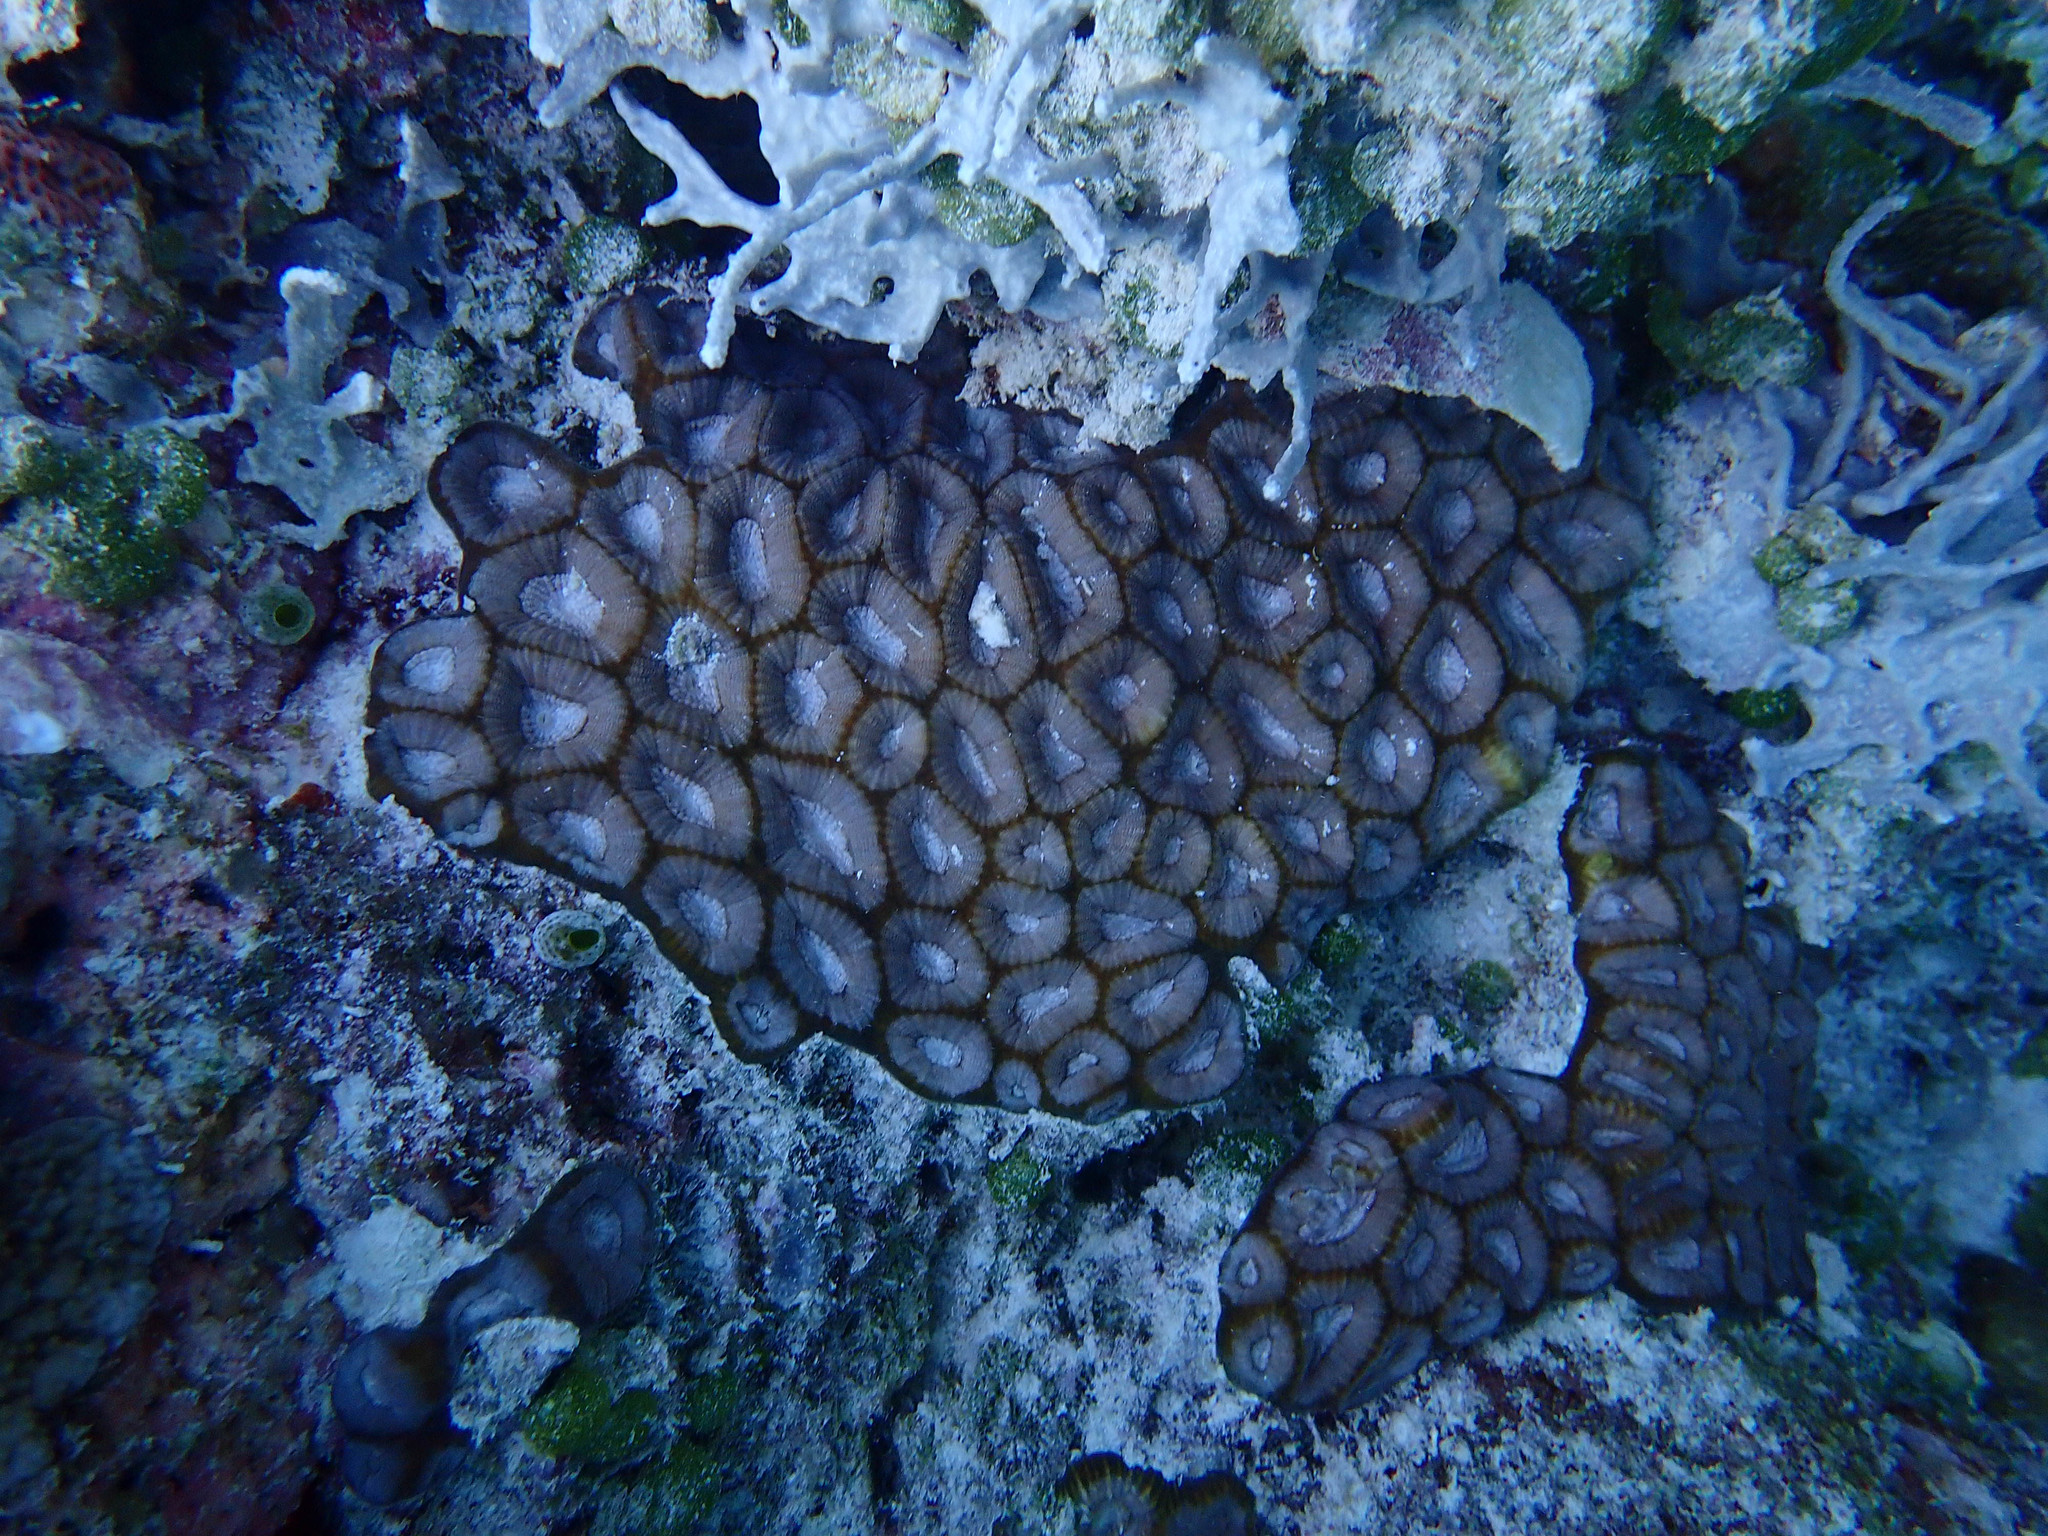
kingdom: Animalia
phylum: Cnidaria
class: Anthozoa
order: Scleractinia
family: Merulinidae
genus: Favites
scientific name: Favites rotundata
